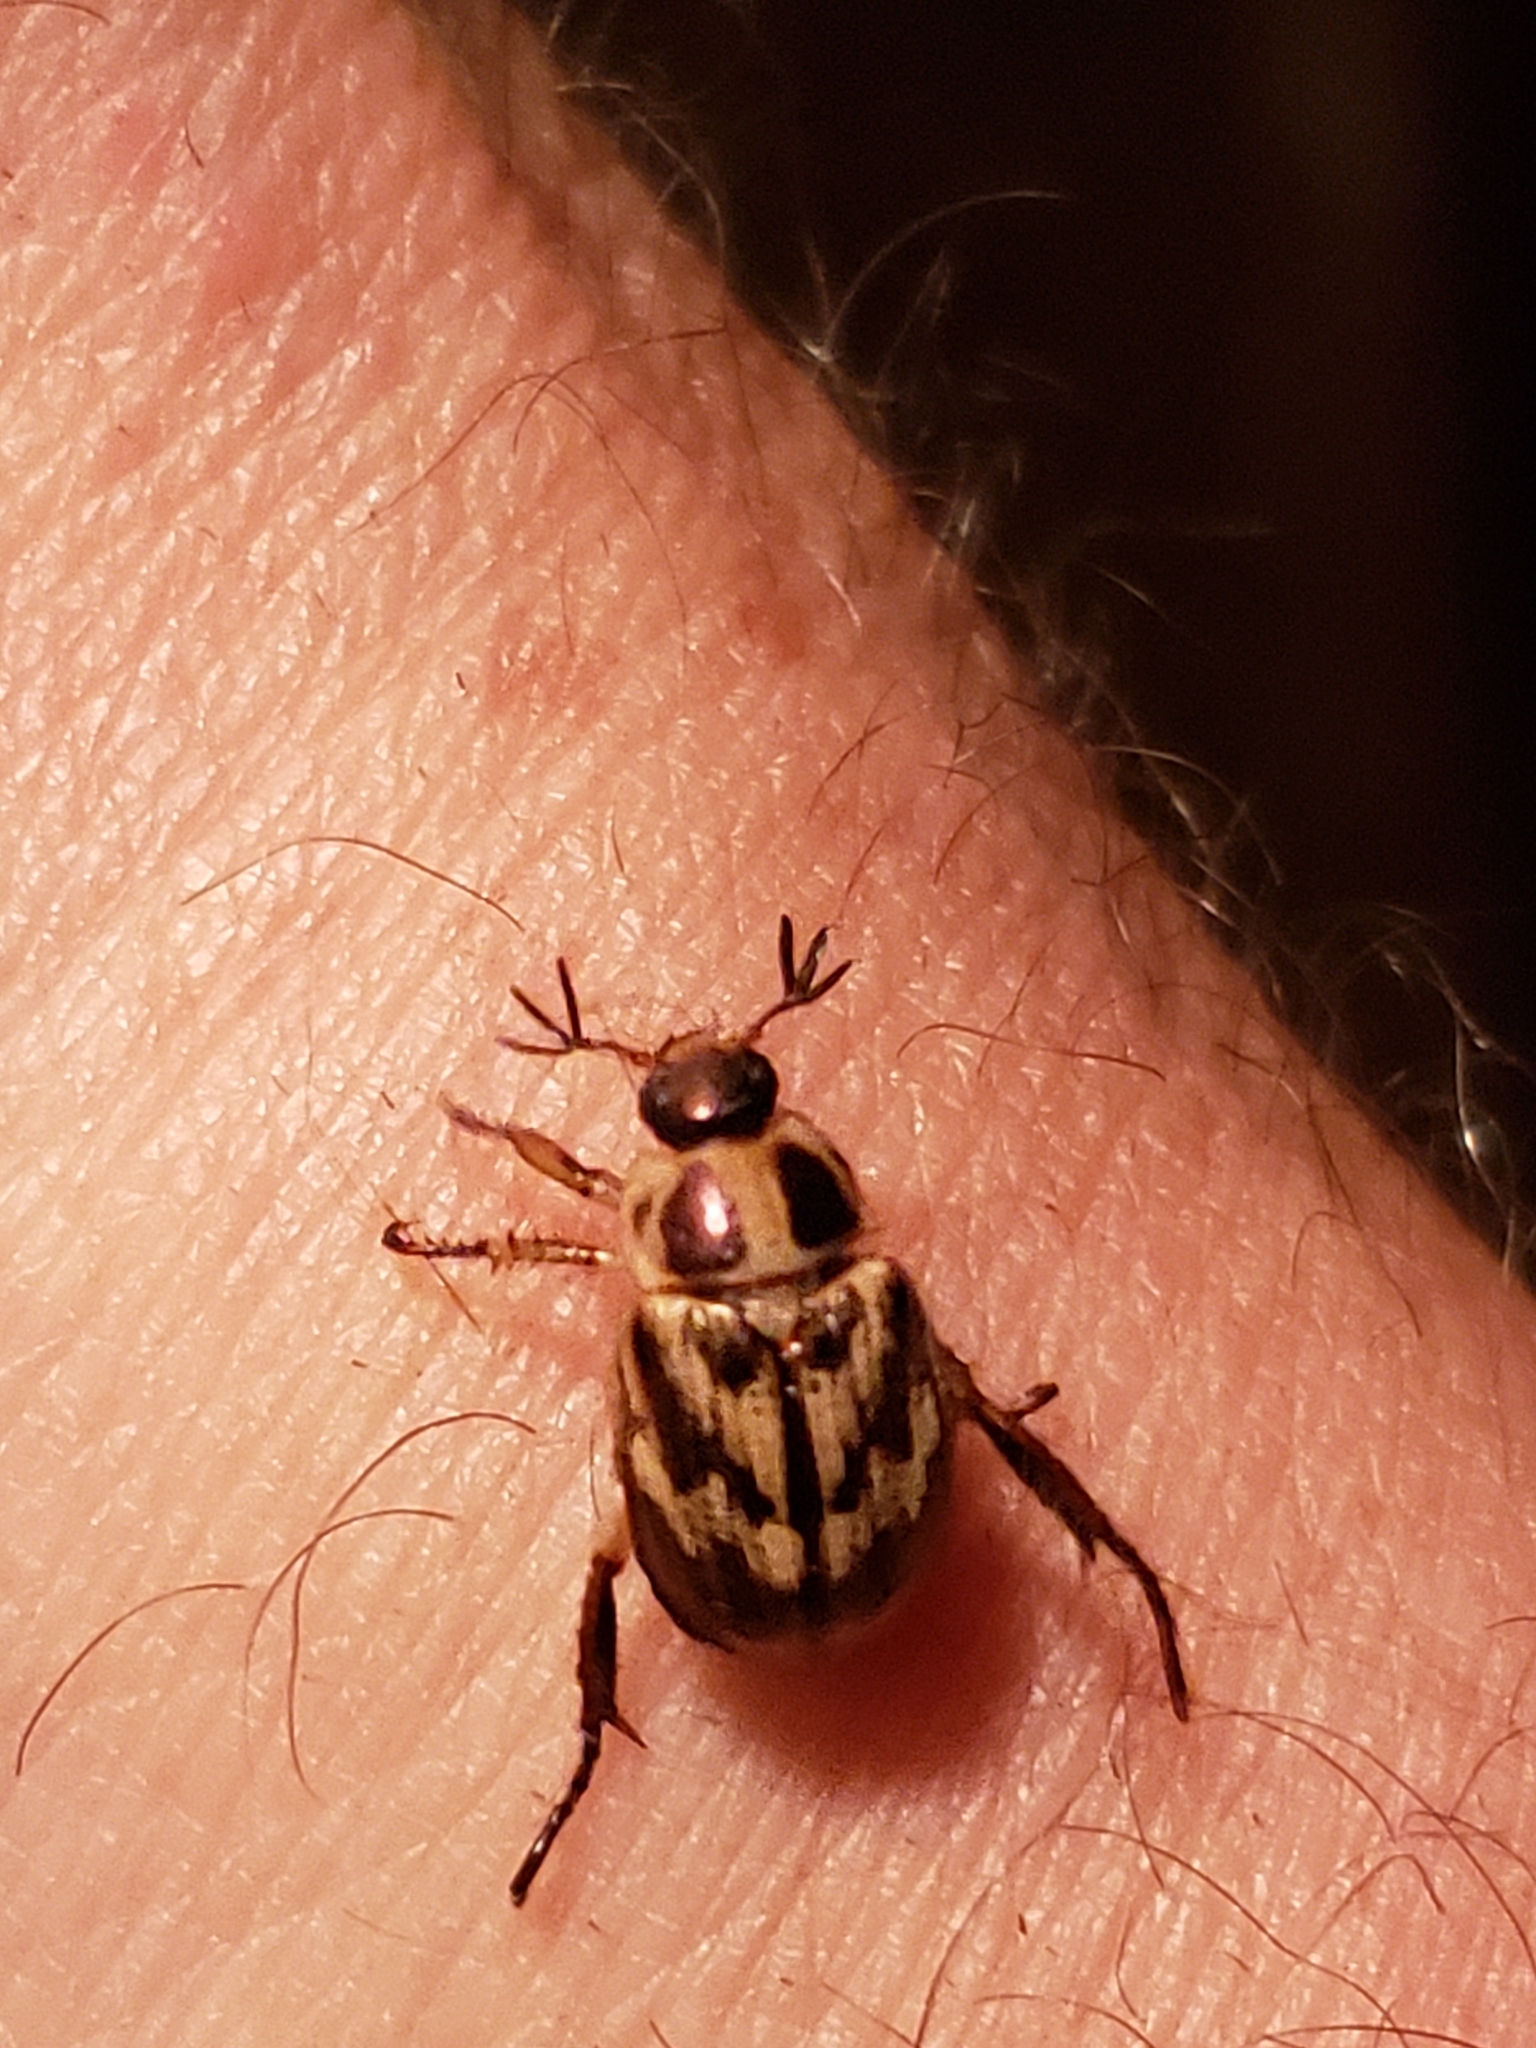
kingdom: Animalia
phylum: Arthropoda
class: Insecta
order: Coleoptera
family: Scarabaeidae
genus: Exomala
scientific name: Exomala orientalis
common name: Oriental beetle
